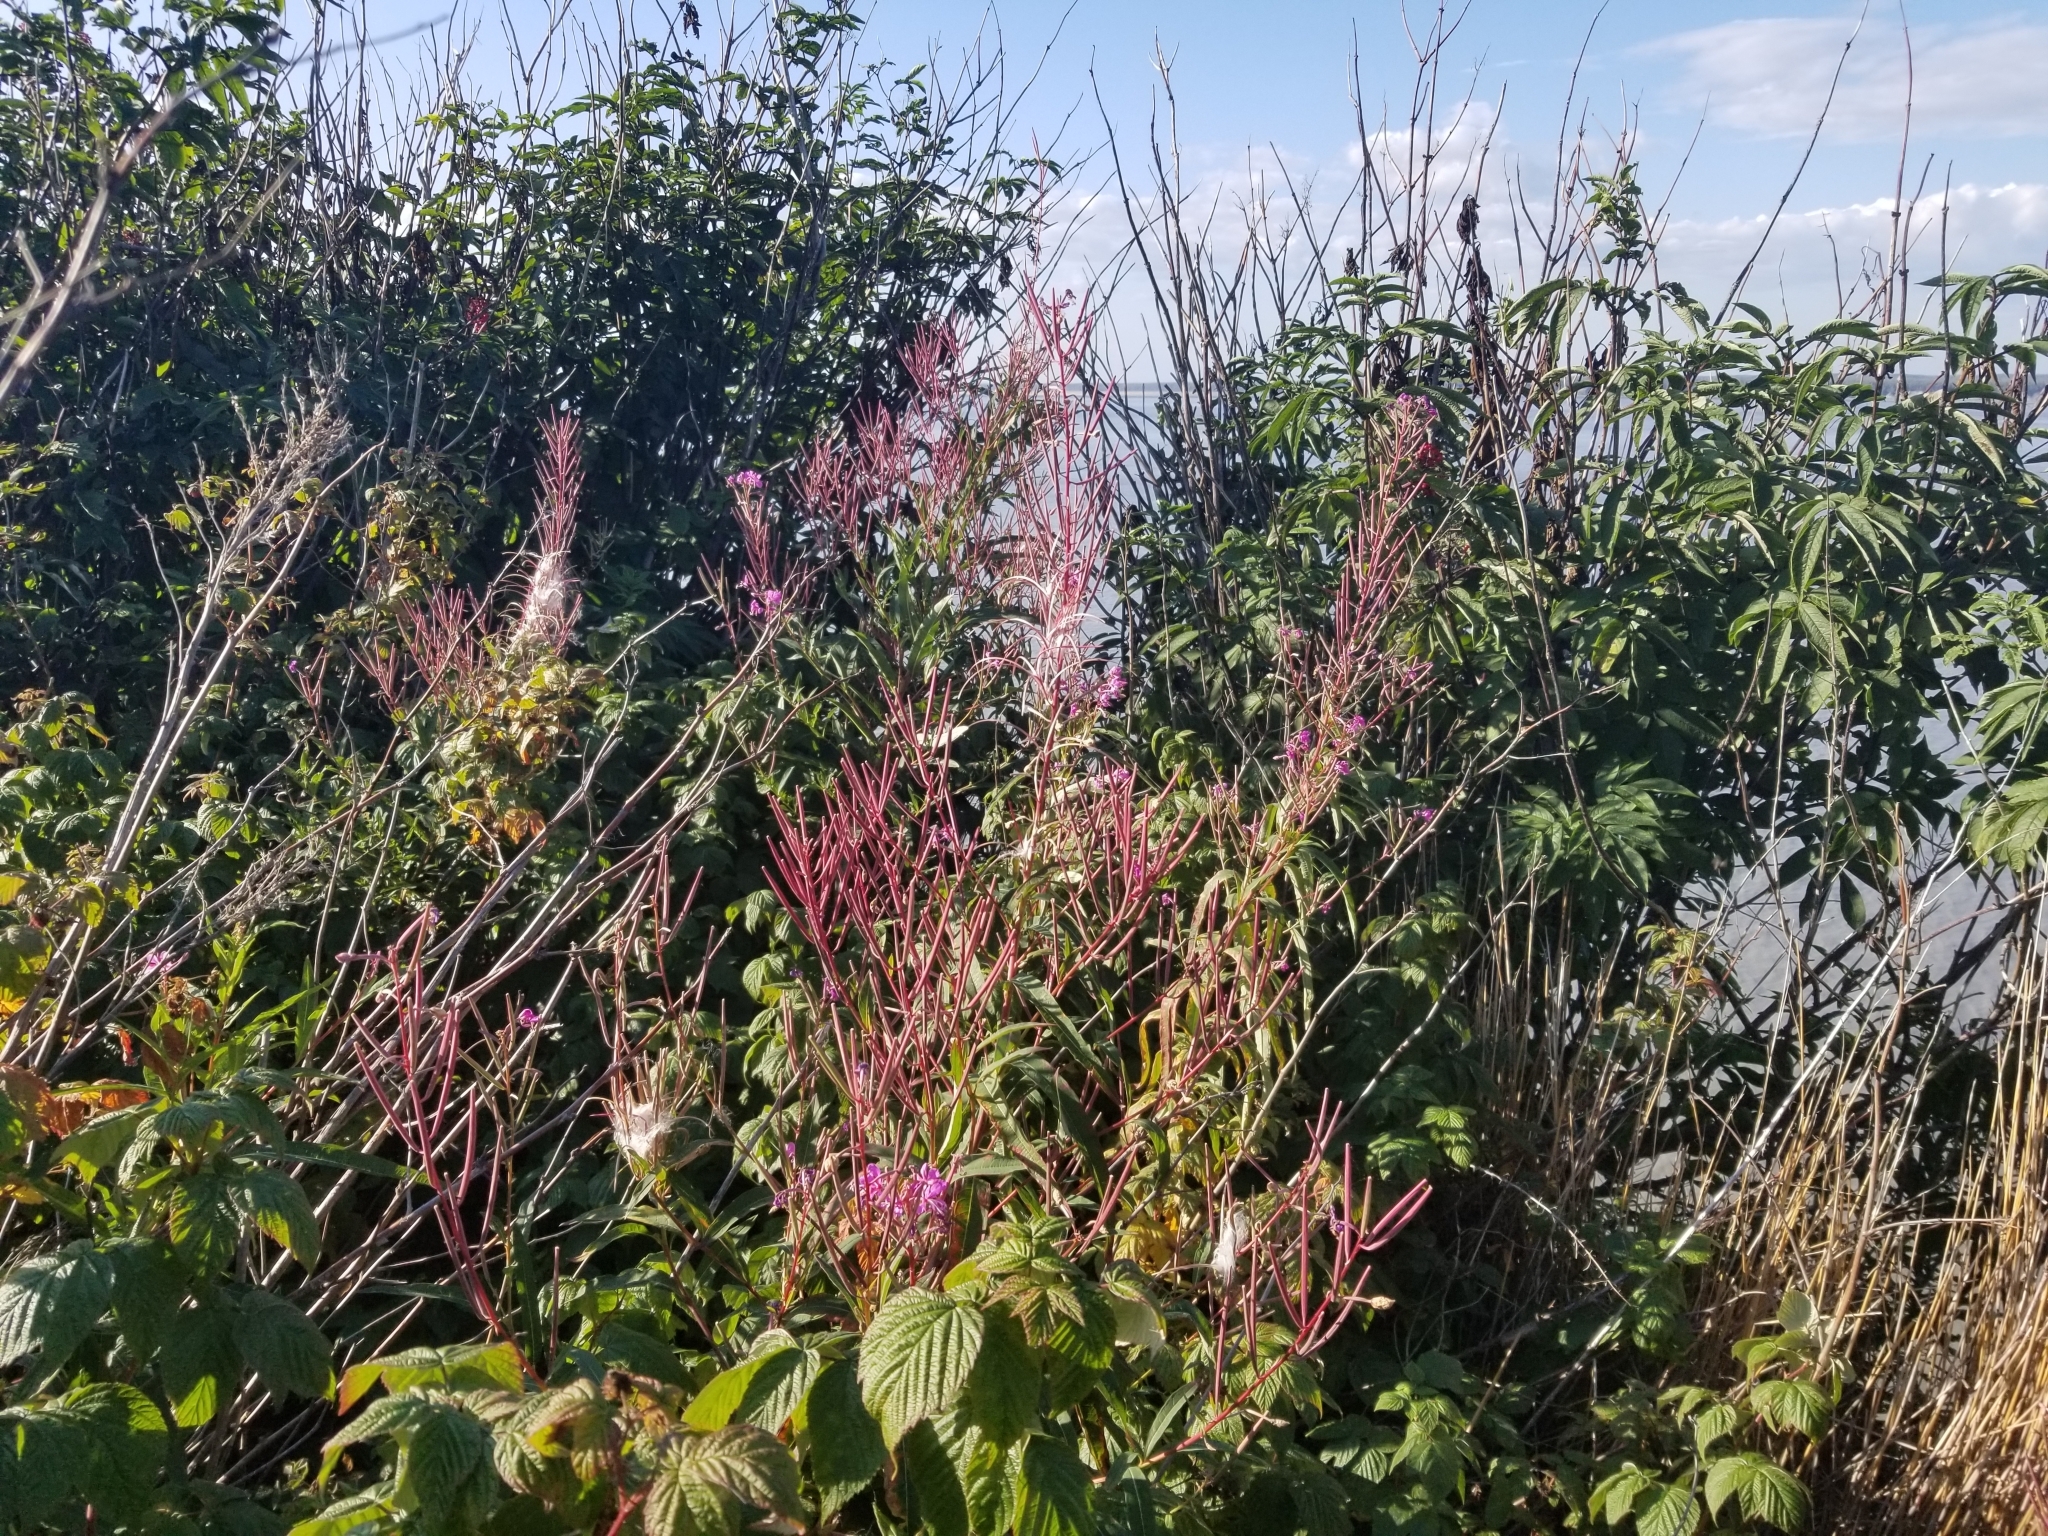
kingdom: Plantae
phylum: Tracheophyta
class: Magnoliopsida
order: Myrtales
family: Onagraceae
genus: Chamaenerion
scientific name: Chamaenerion angustifolium
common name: Fireweed
